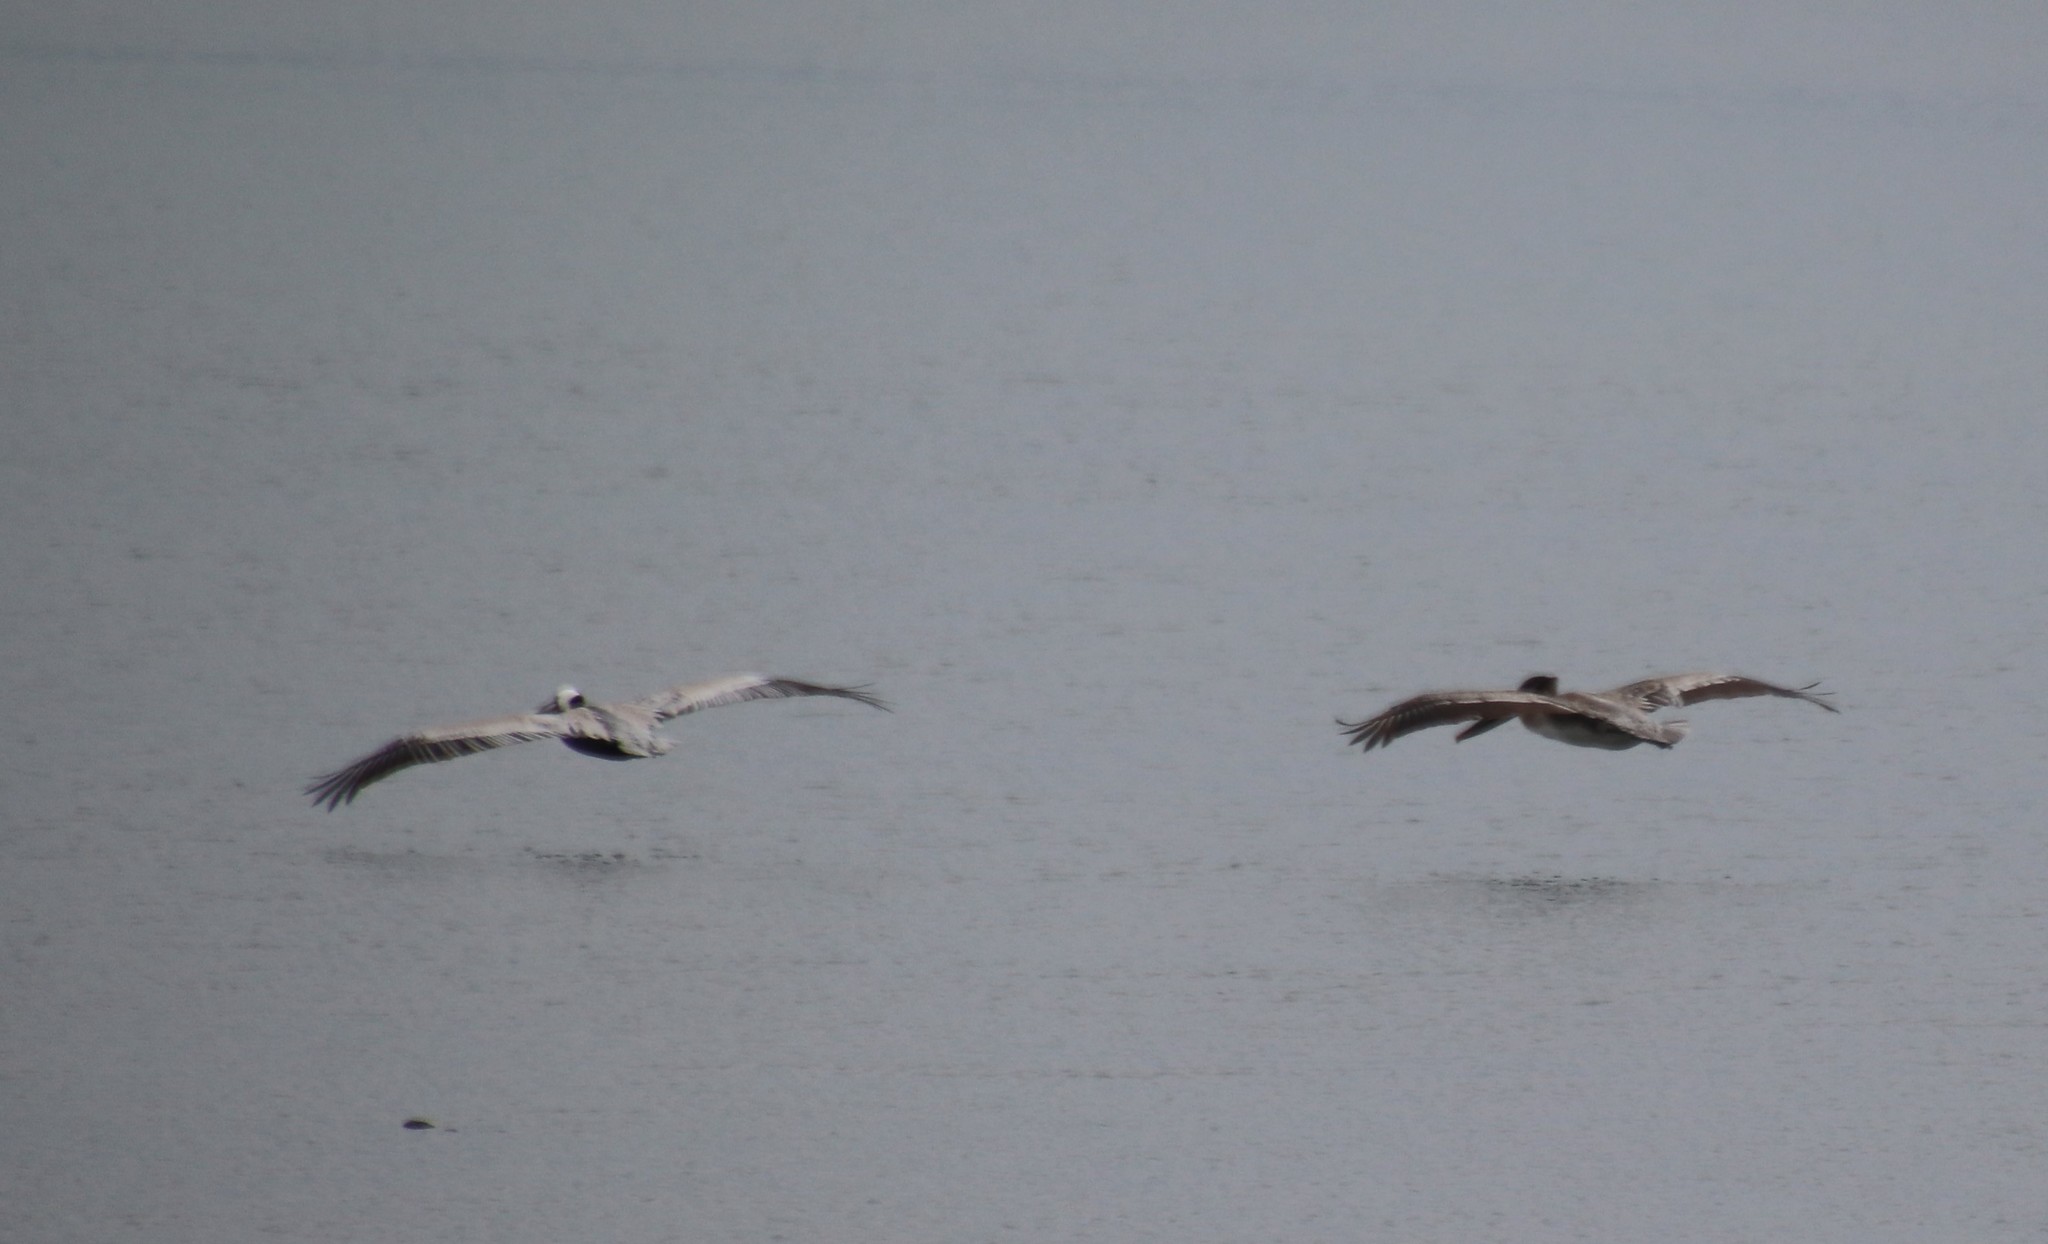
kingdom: Animalia
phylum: Chordata
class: Aves
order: Pelecaniformes
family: Pelecanidae
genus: Pelecanus
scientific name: Pelecanus occidentalis
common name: Brown pelican
